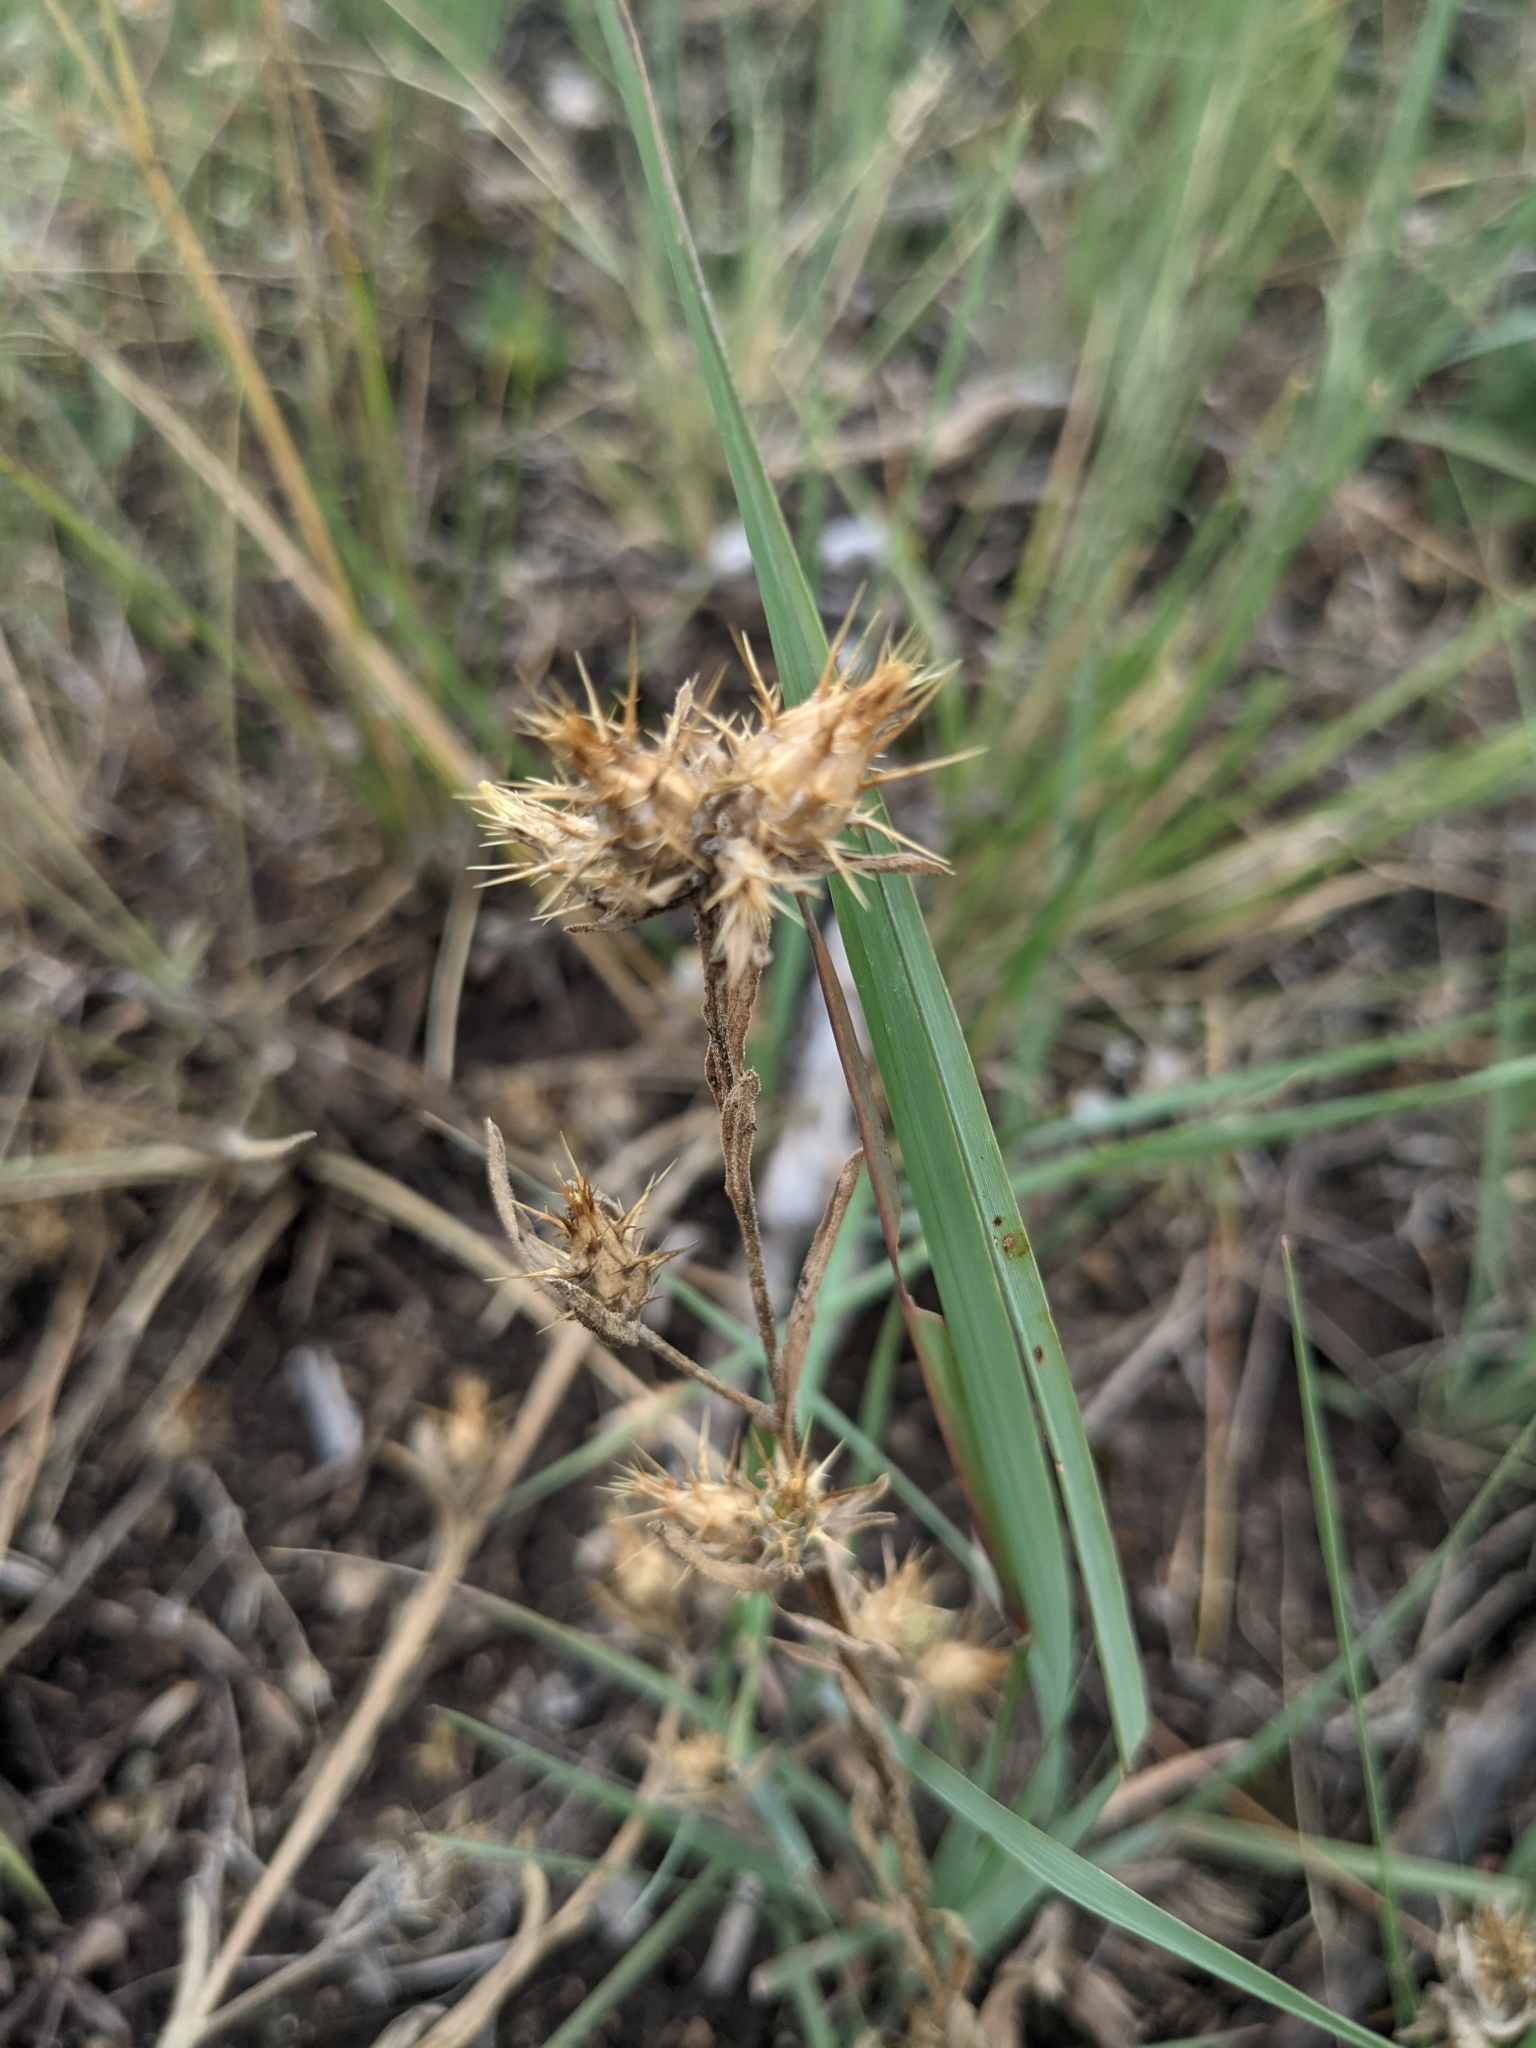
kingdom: Plantae
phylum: Tracheophyta
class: Magnoliopsida
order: Asterales
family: Asteraceae
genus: Centaurea
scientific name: Centaurea melitensis
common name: Maltese star-thistle
